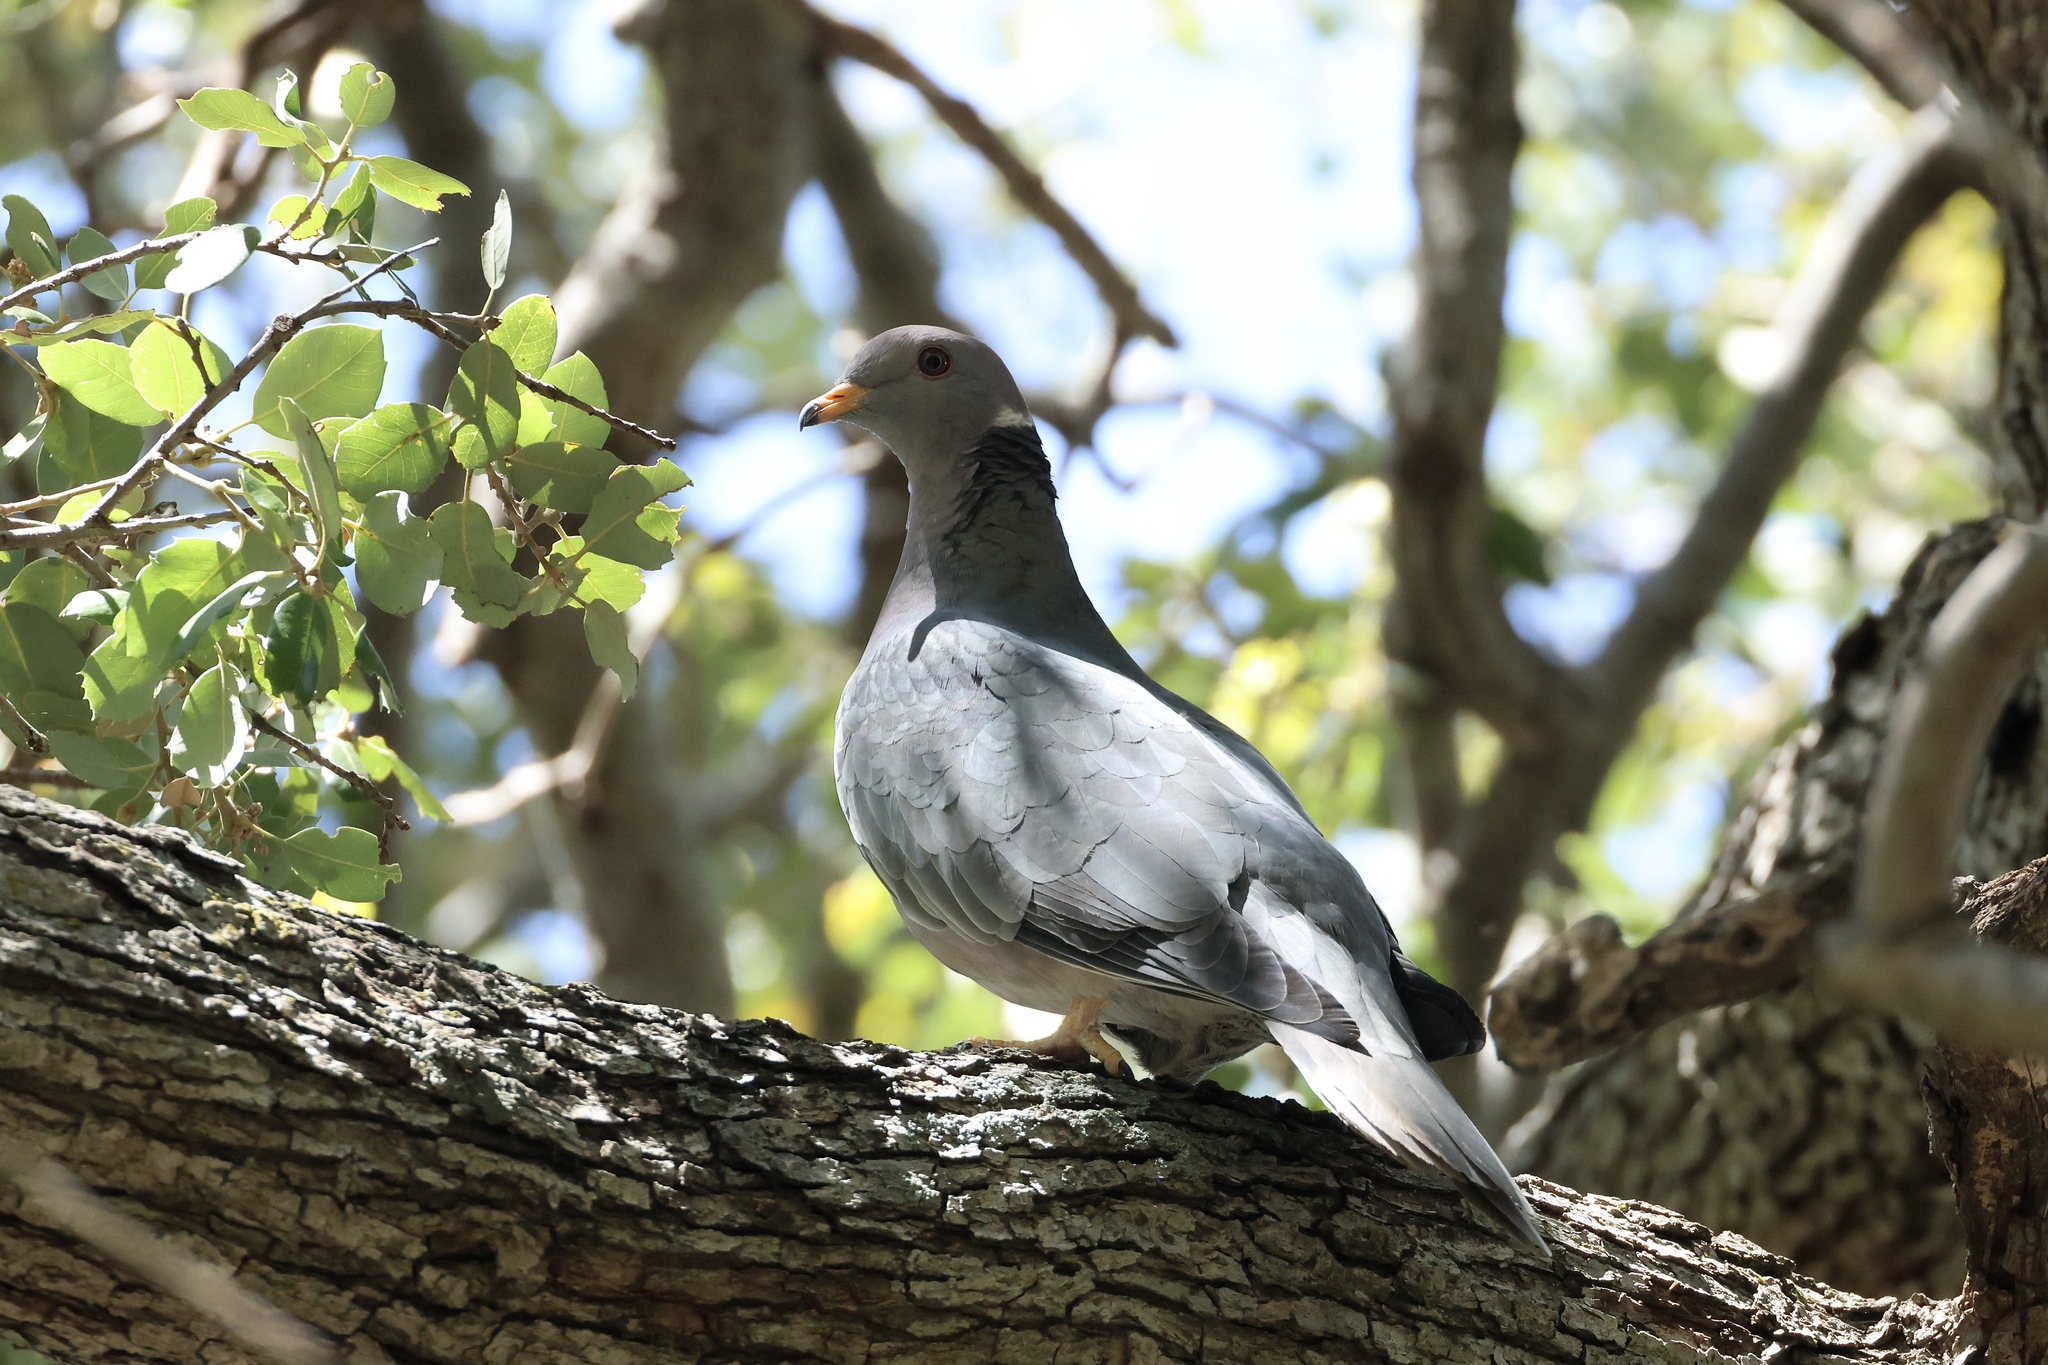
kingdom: Animalia
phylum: Chordata
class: Aves
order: Columbiformes
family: Columbidae
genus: Patagioenas
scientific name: Patagioenas fasciata
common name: Band-tailed pigeon
